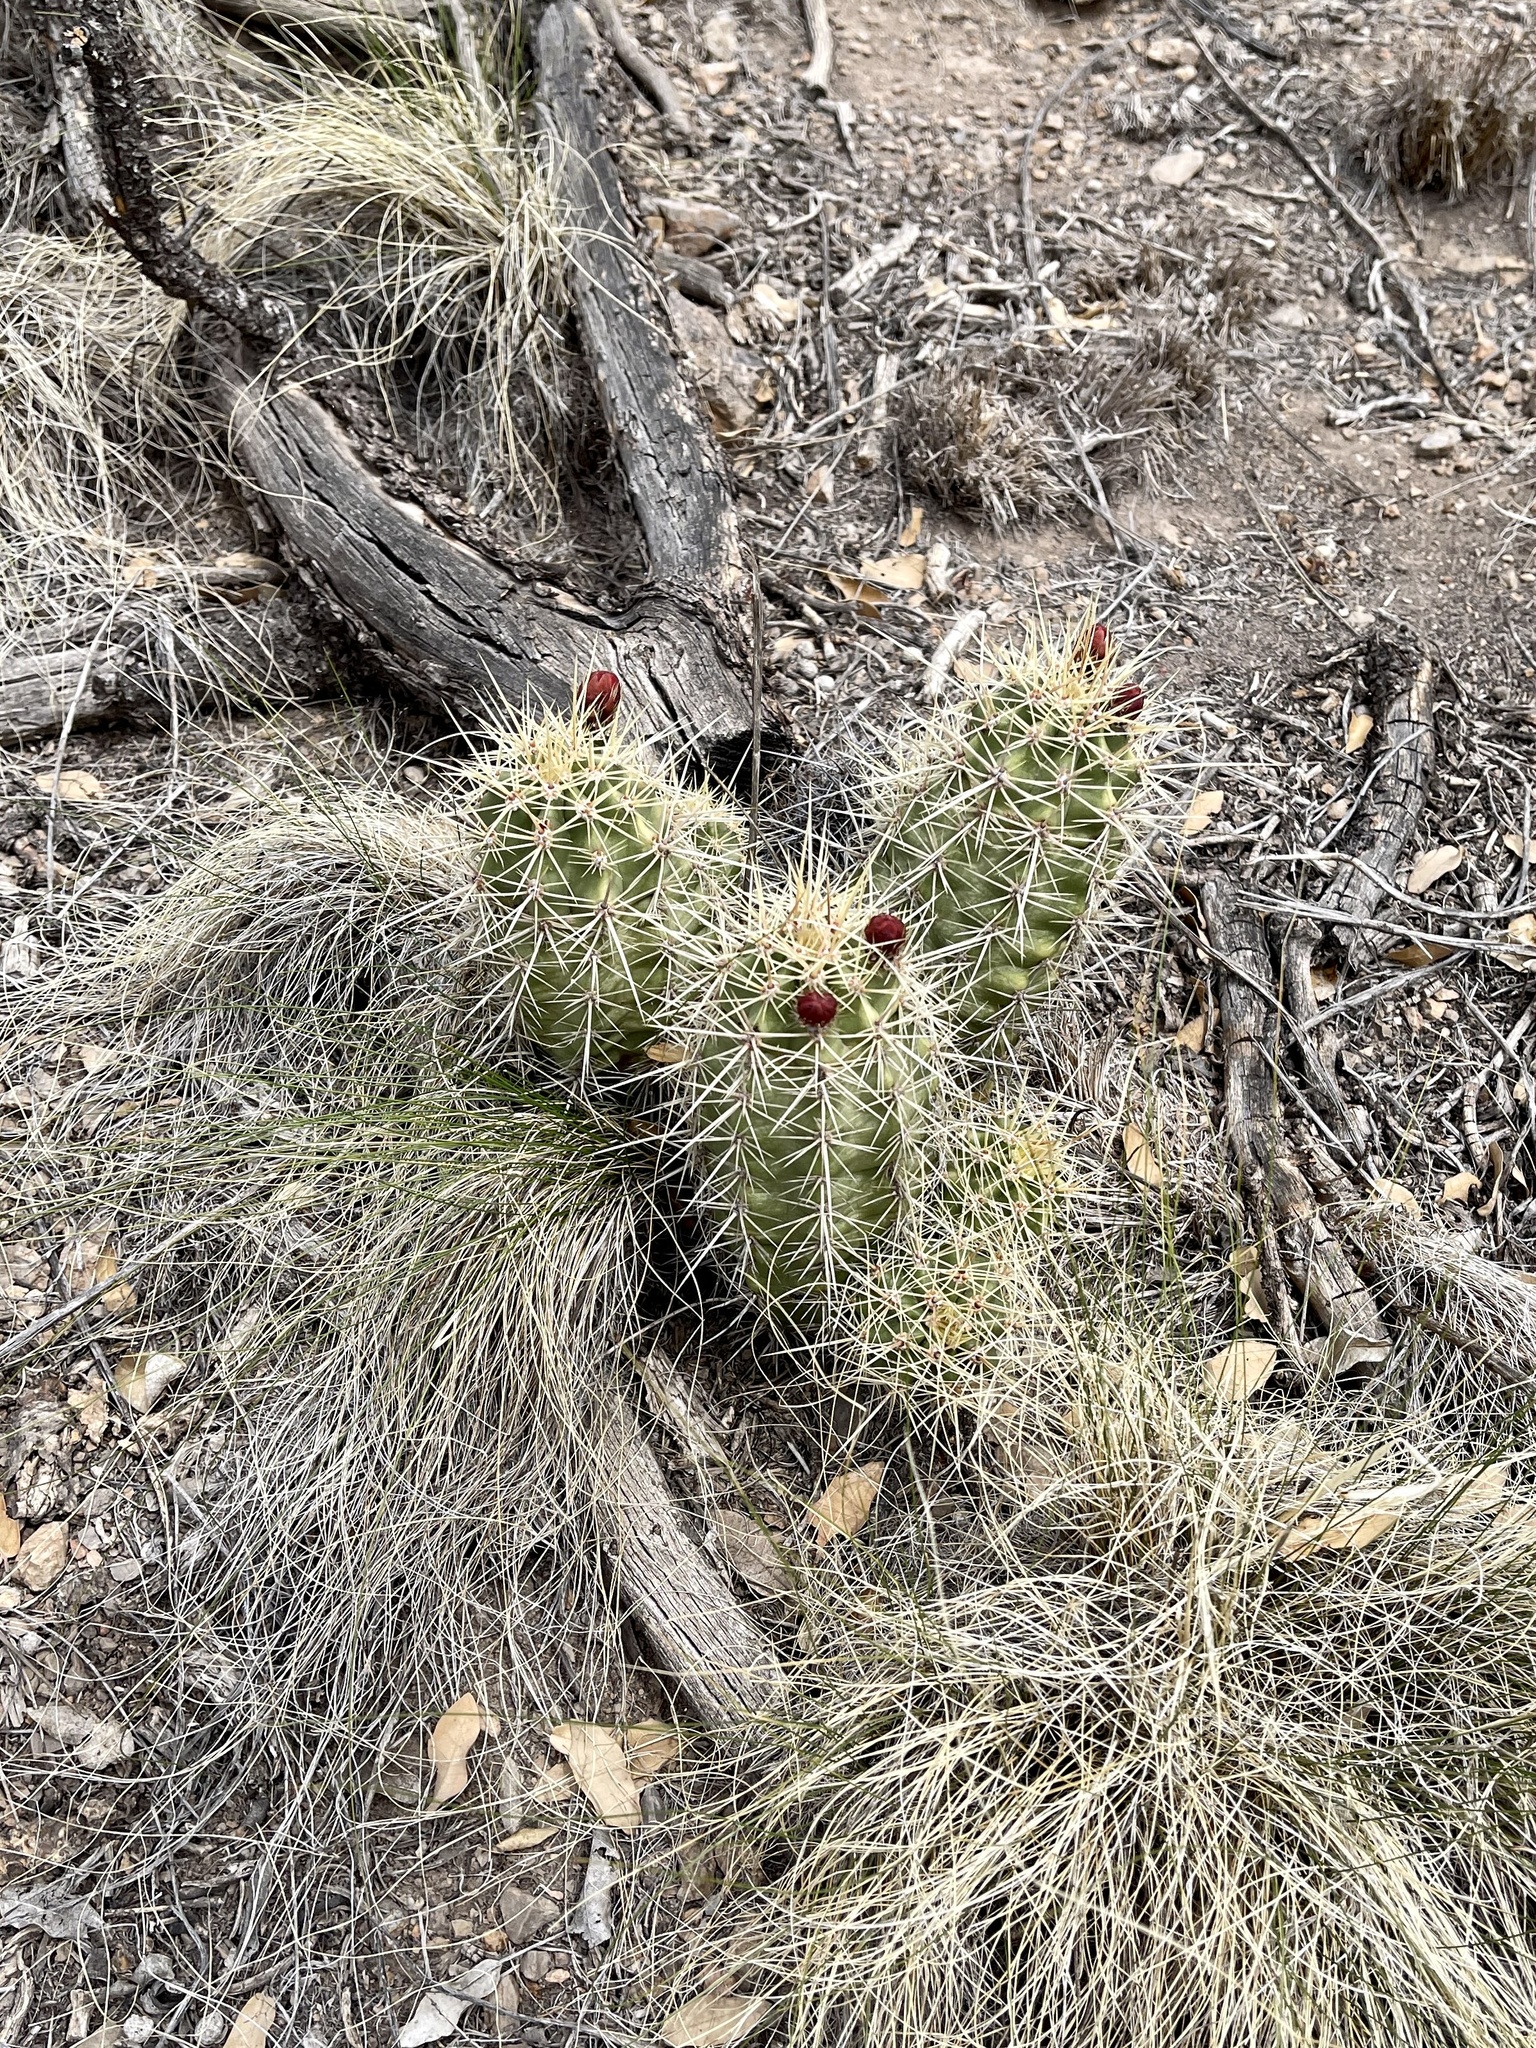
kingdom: Plantae
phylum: Tracheophyta
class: Magnoliopsida
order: Caryophyllales
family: Cactaceae
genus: Echinocereus
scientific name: Echinocereus coccineus
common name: Scarlet hedgehog cactus
